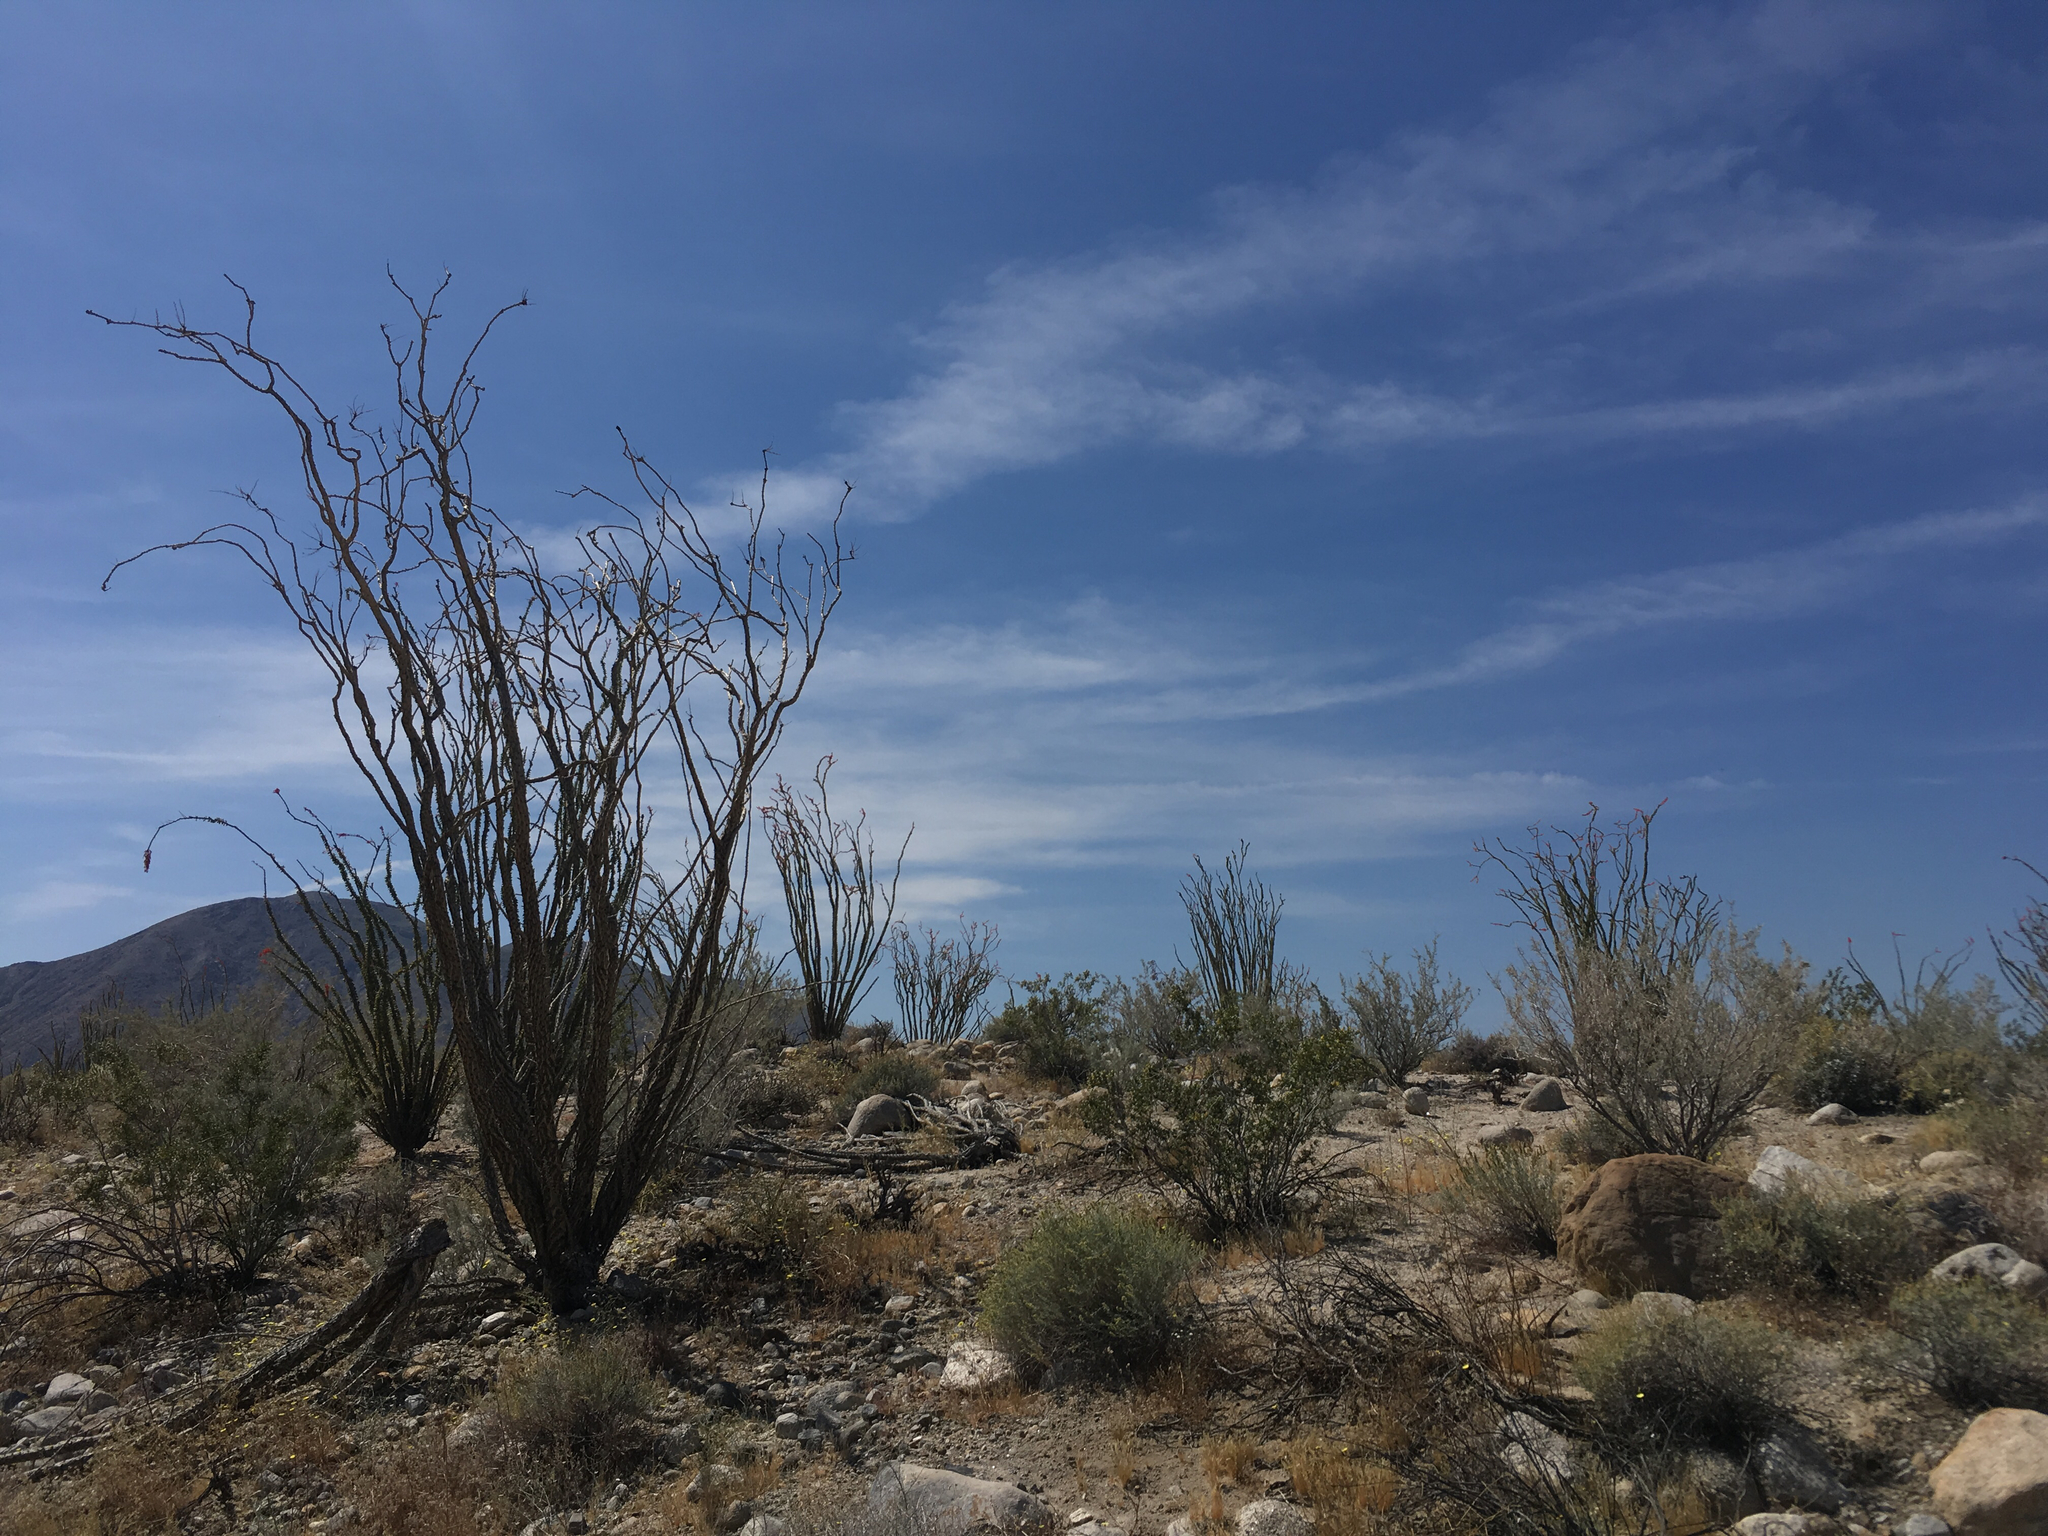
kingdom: Plantae
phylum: Tracheophyta
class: Magnoliopsida
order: Ericales
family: Fouquieriaceae
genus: Fouquieria
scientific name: Fouquieria splendens
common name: Vine-cactus
